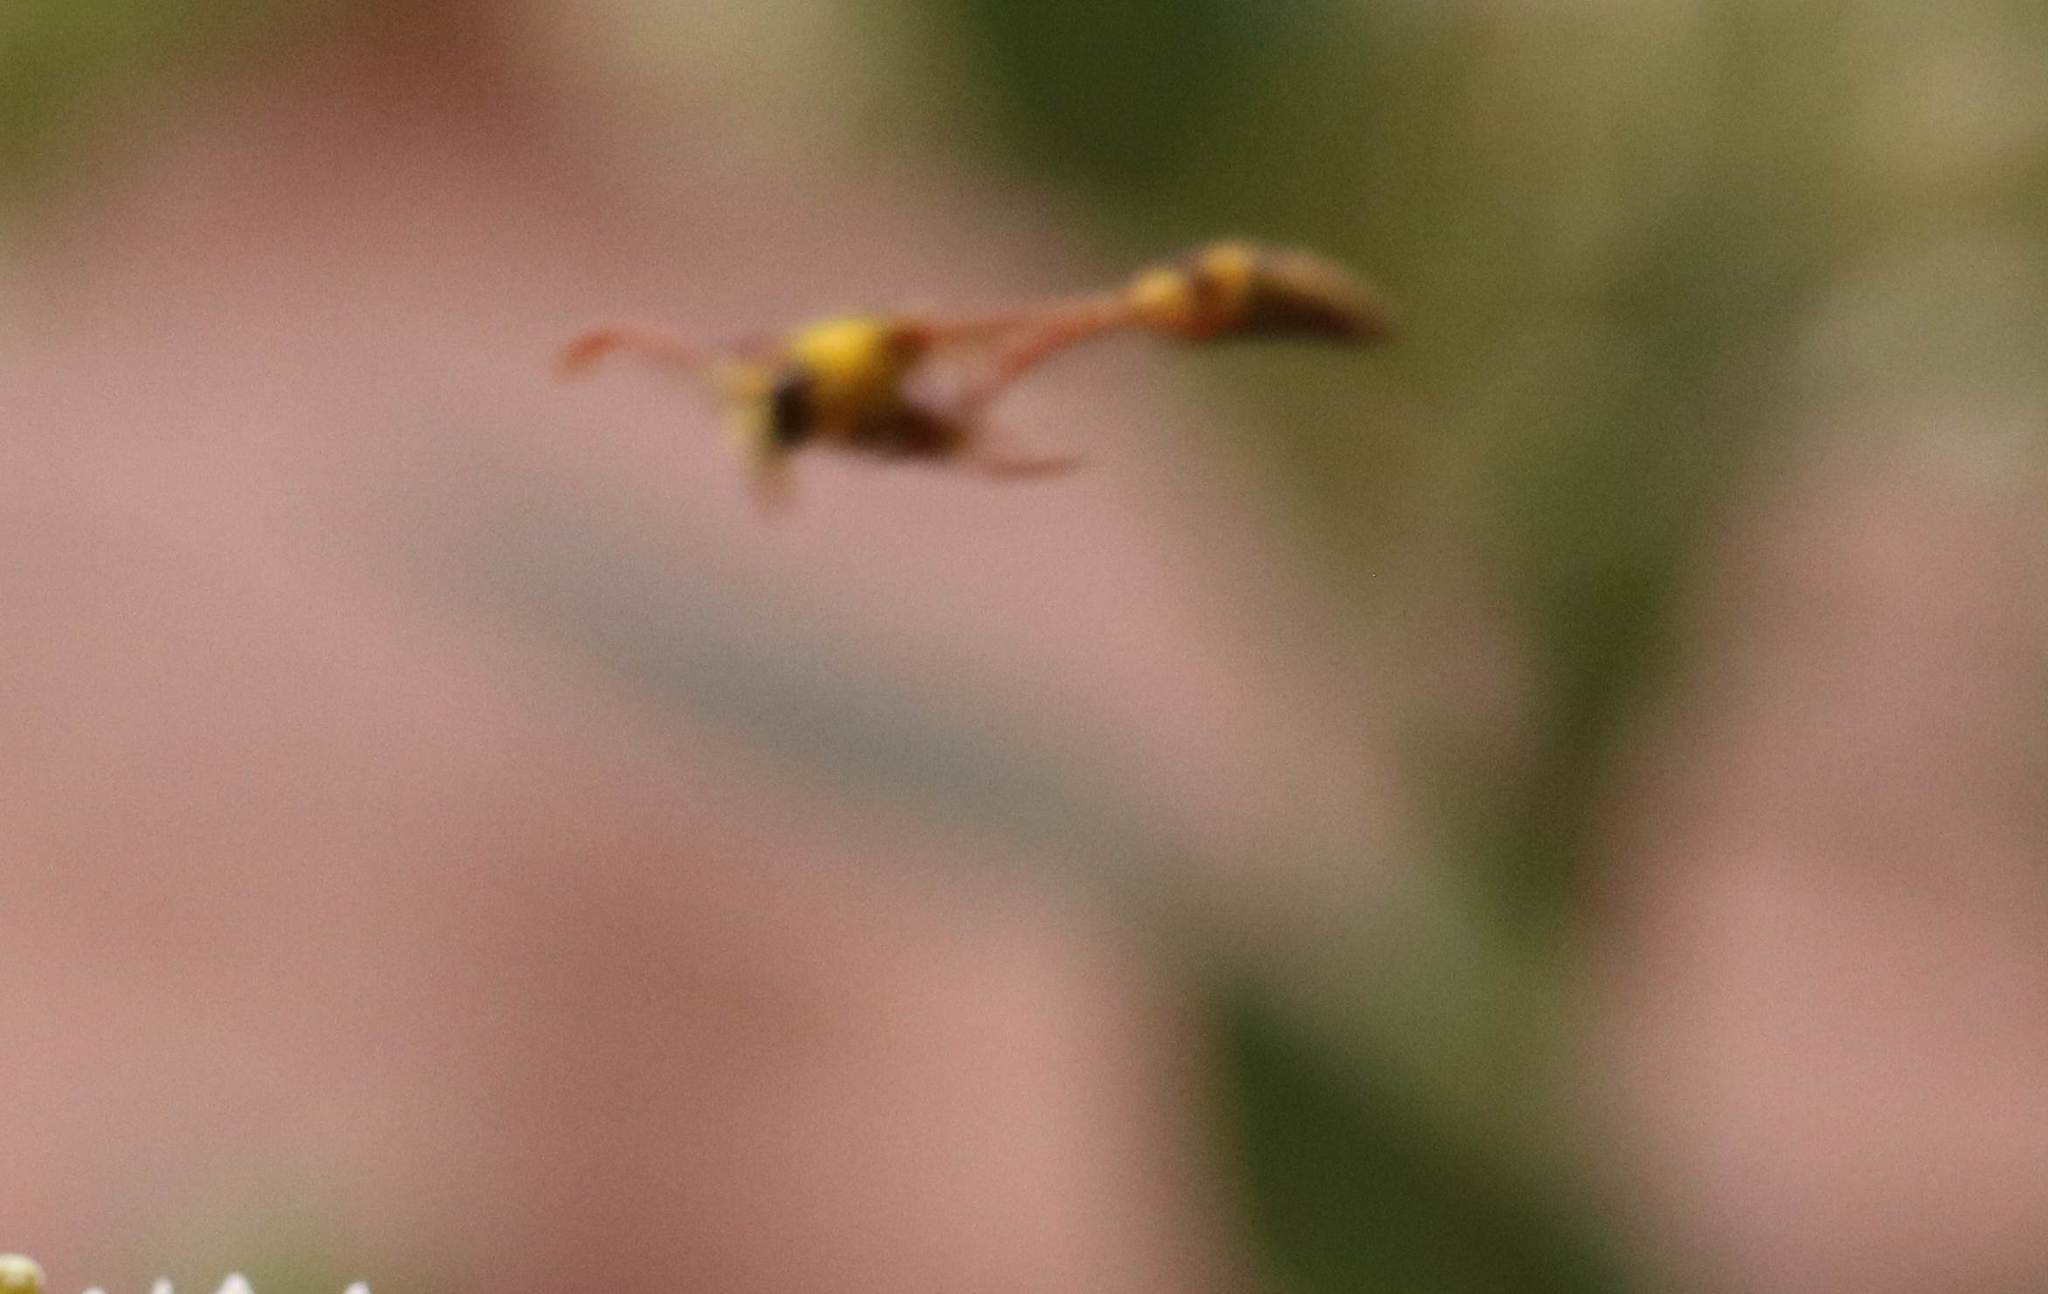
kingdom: Animalia
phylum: Arthropoda
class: Insecta
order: Hymenoptera
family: Eumenidae
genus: Delta
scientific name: Delta
